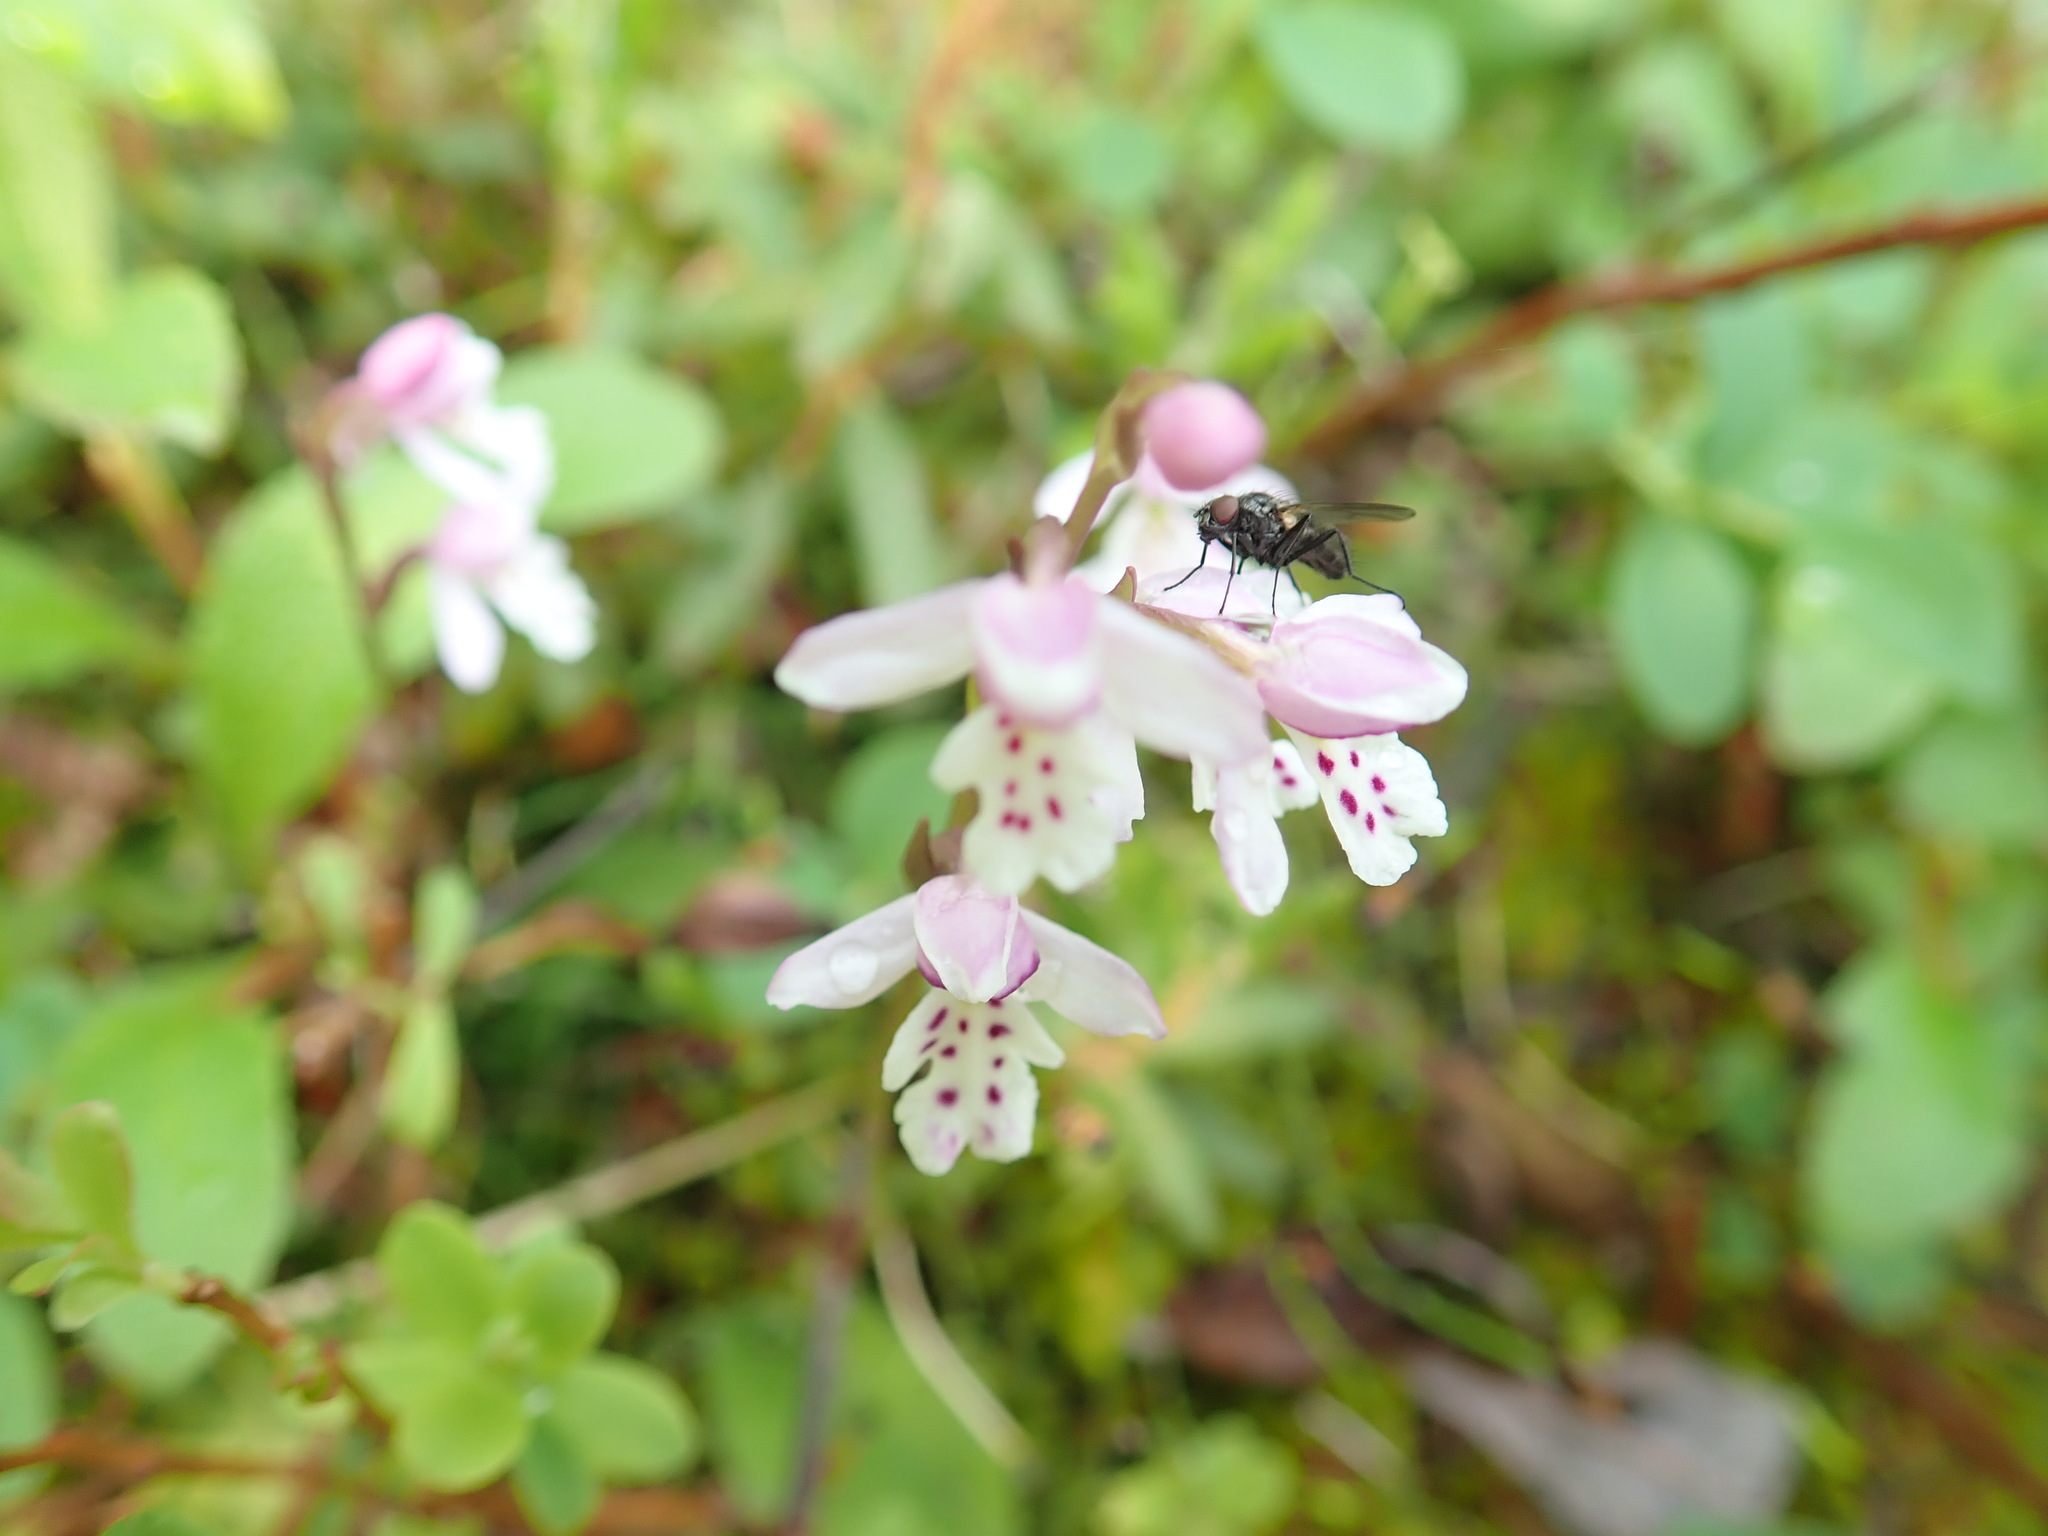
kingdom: Plantae
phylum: Tracheophyta
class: Liliopsida
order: Asparagales
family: Orchidaceae
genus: Galearis
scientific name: Galearis rotundifolia
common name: One-leaved orchis
